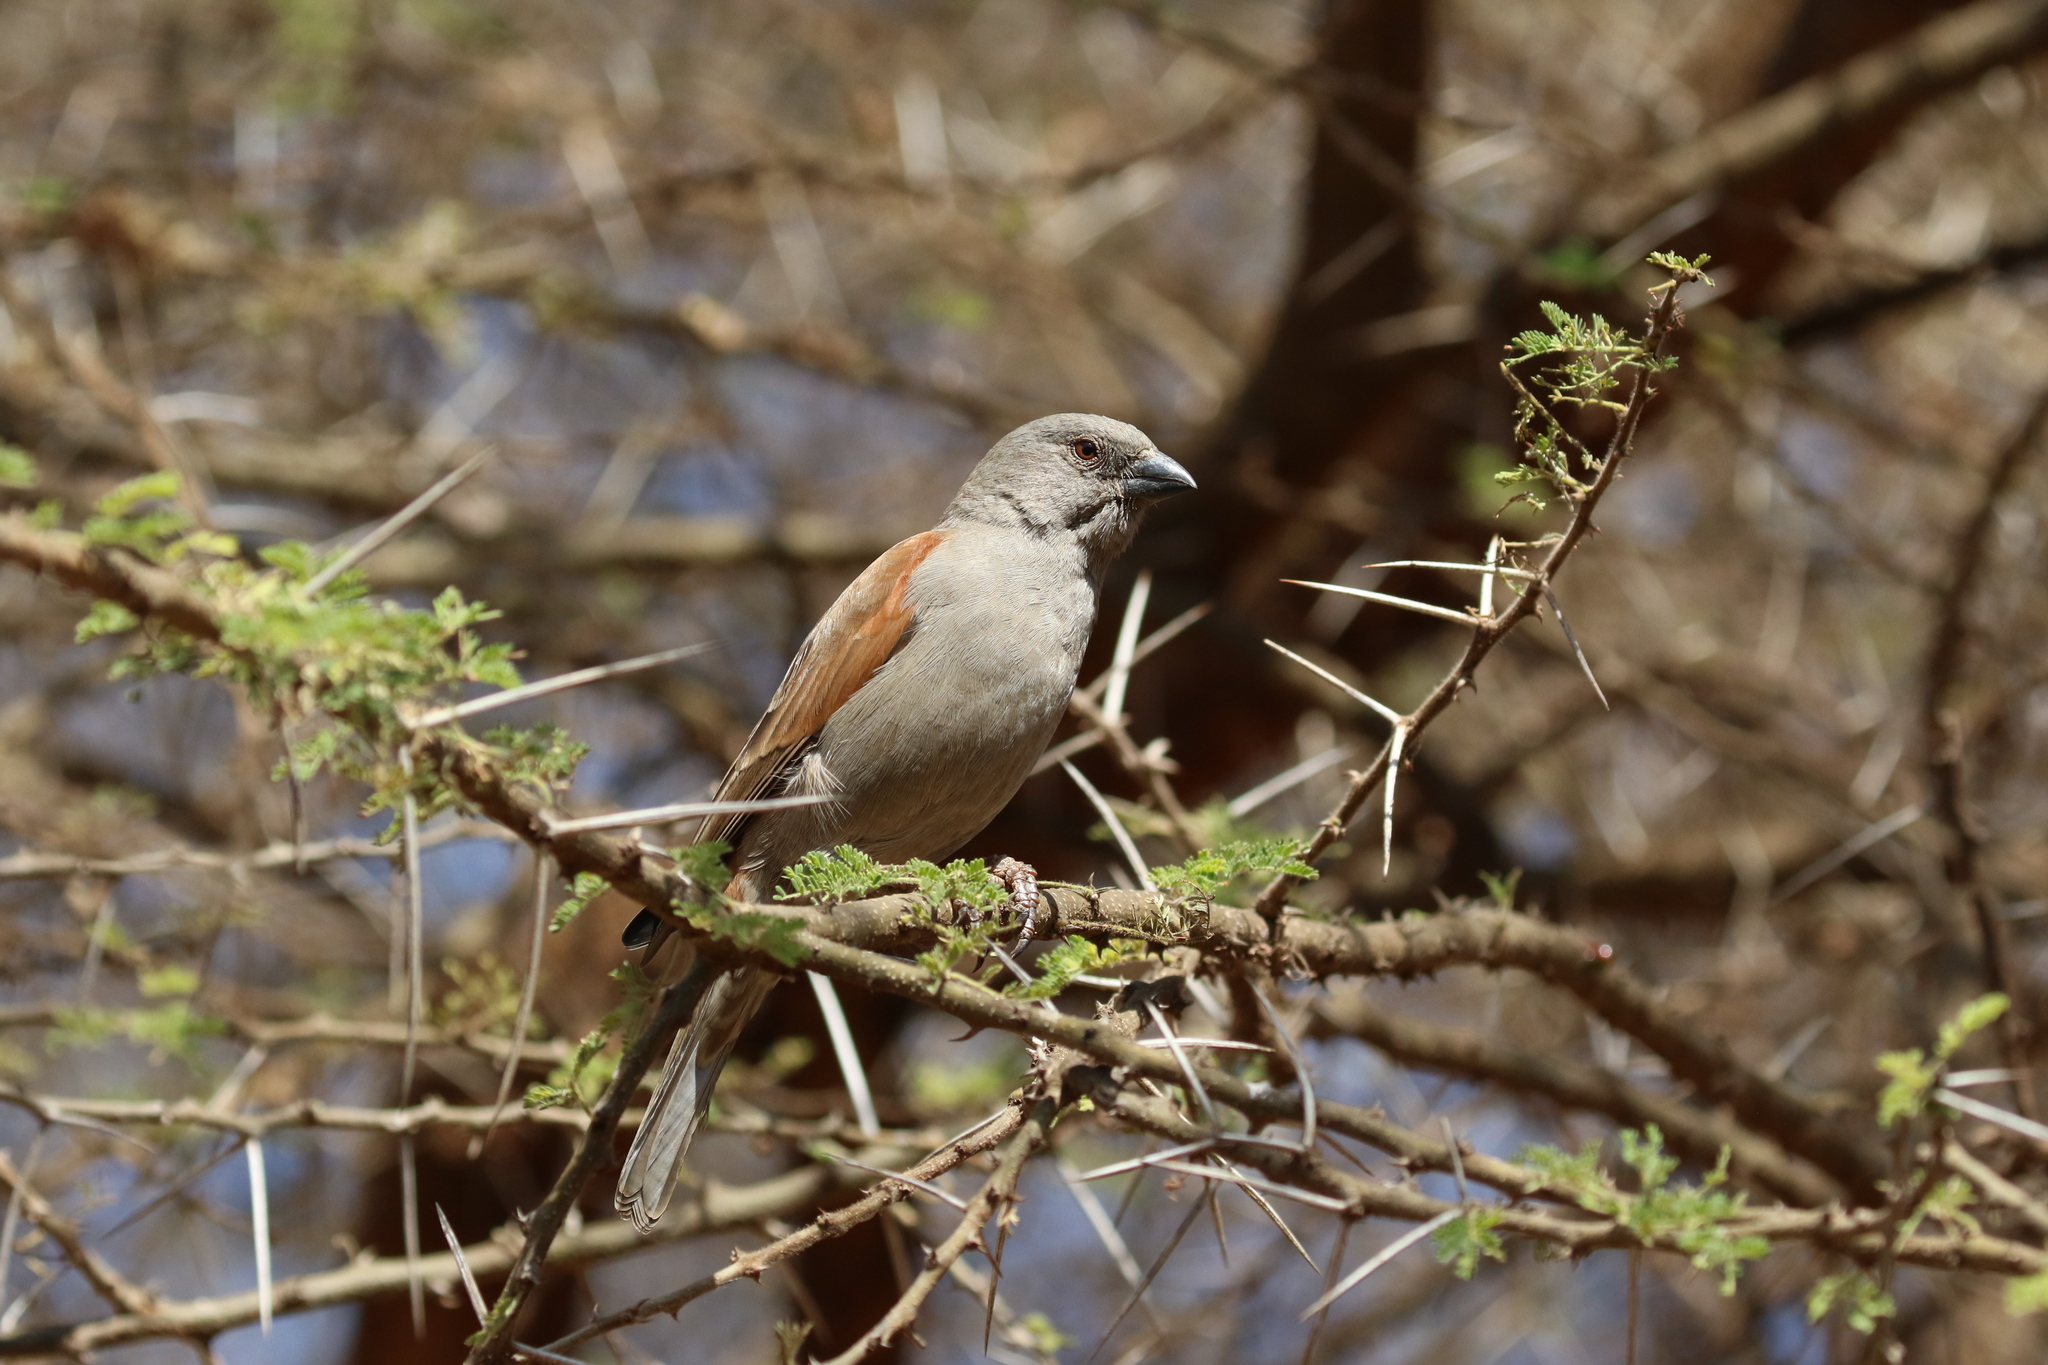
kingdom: Animalia
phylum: Chordata
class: Aves
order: Passeriformes
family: Passeridae
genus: Passer
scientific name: Passer griseus
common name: Northern grey-headed sparrow
